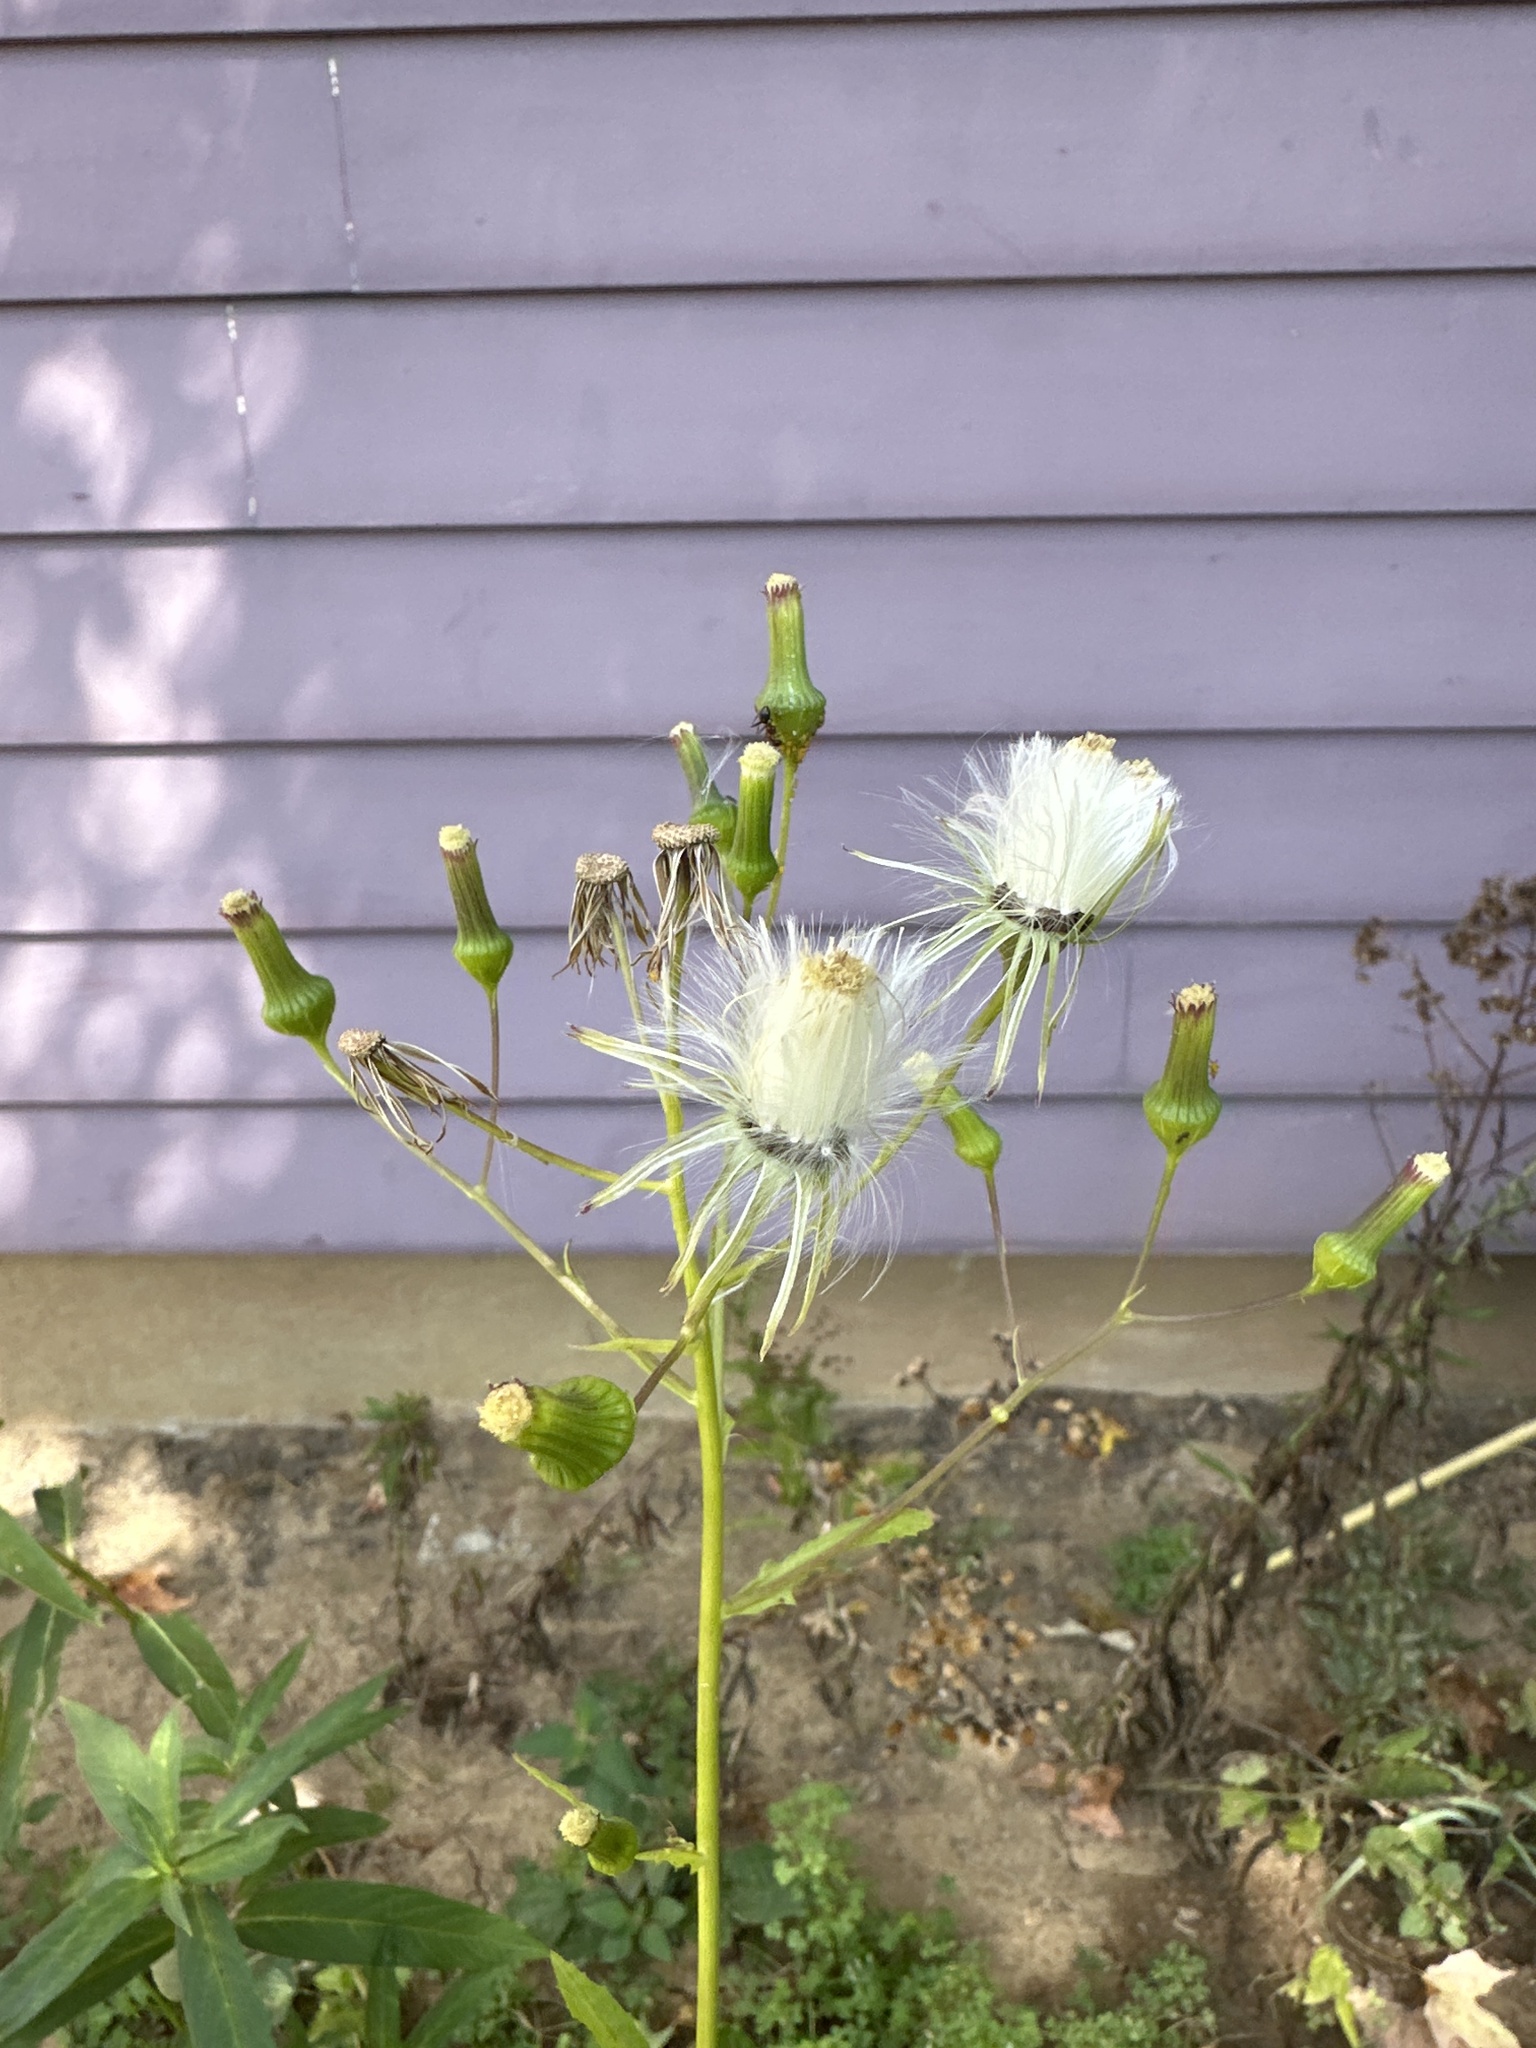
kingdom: Plantae
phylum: Tracheophyta
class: Magnoliopsida
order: Asterales
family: Asteraceae
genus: Erechtites
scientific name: Erechtites hieraciifolius
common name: American burnweed
